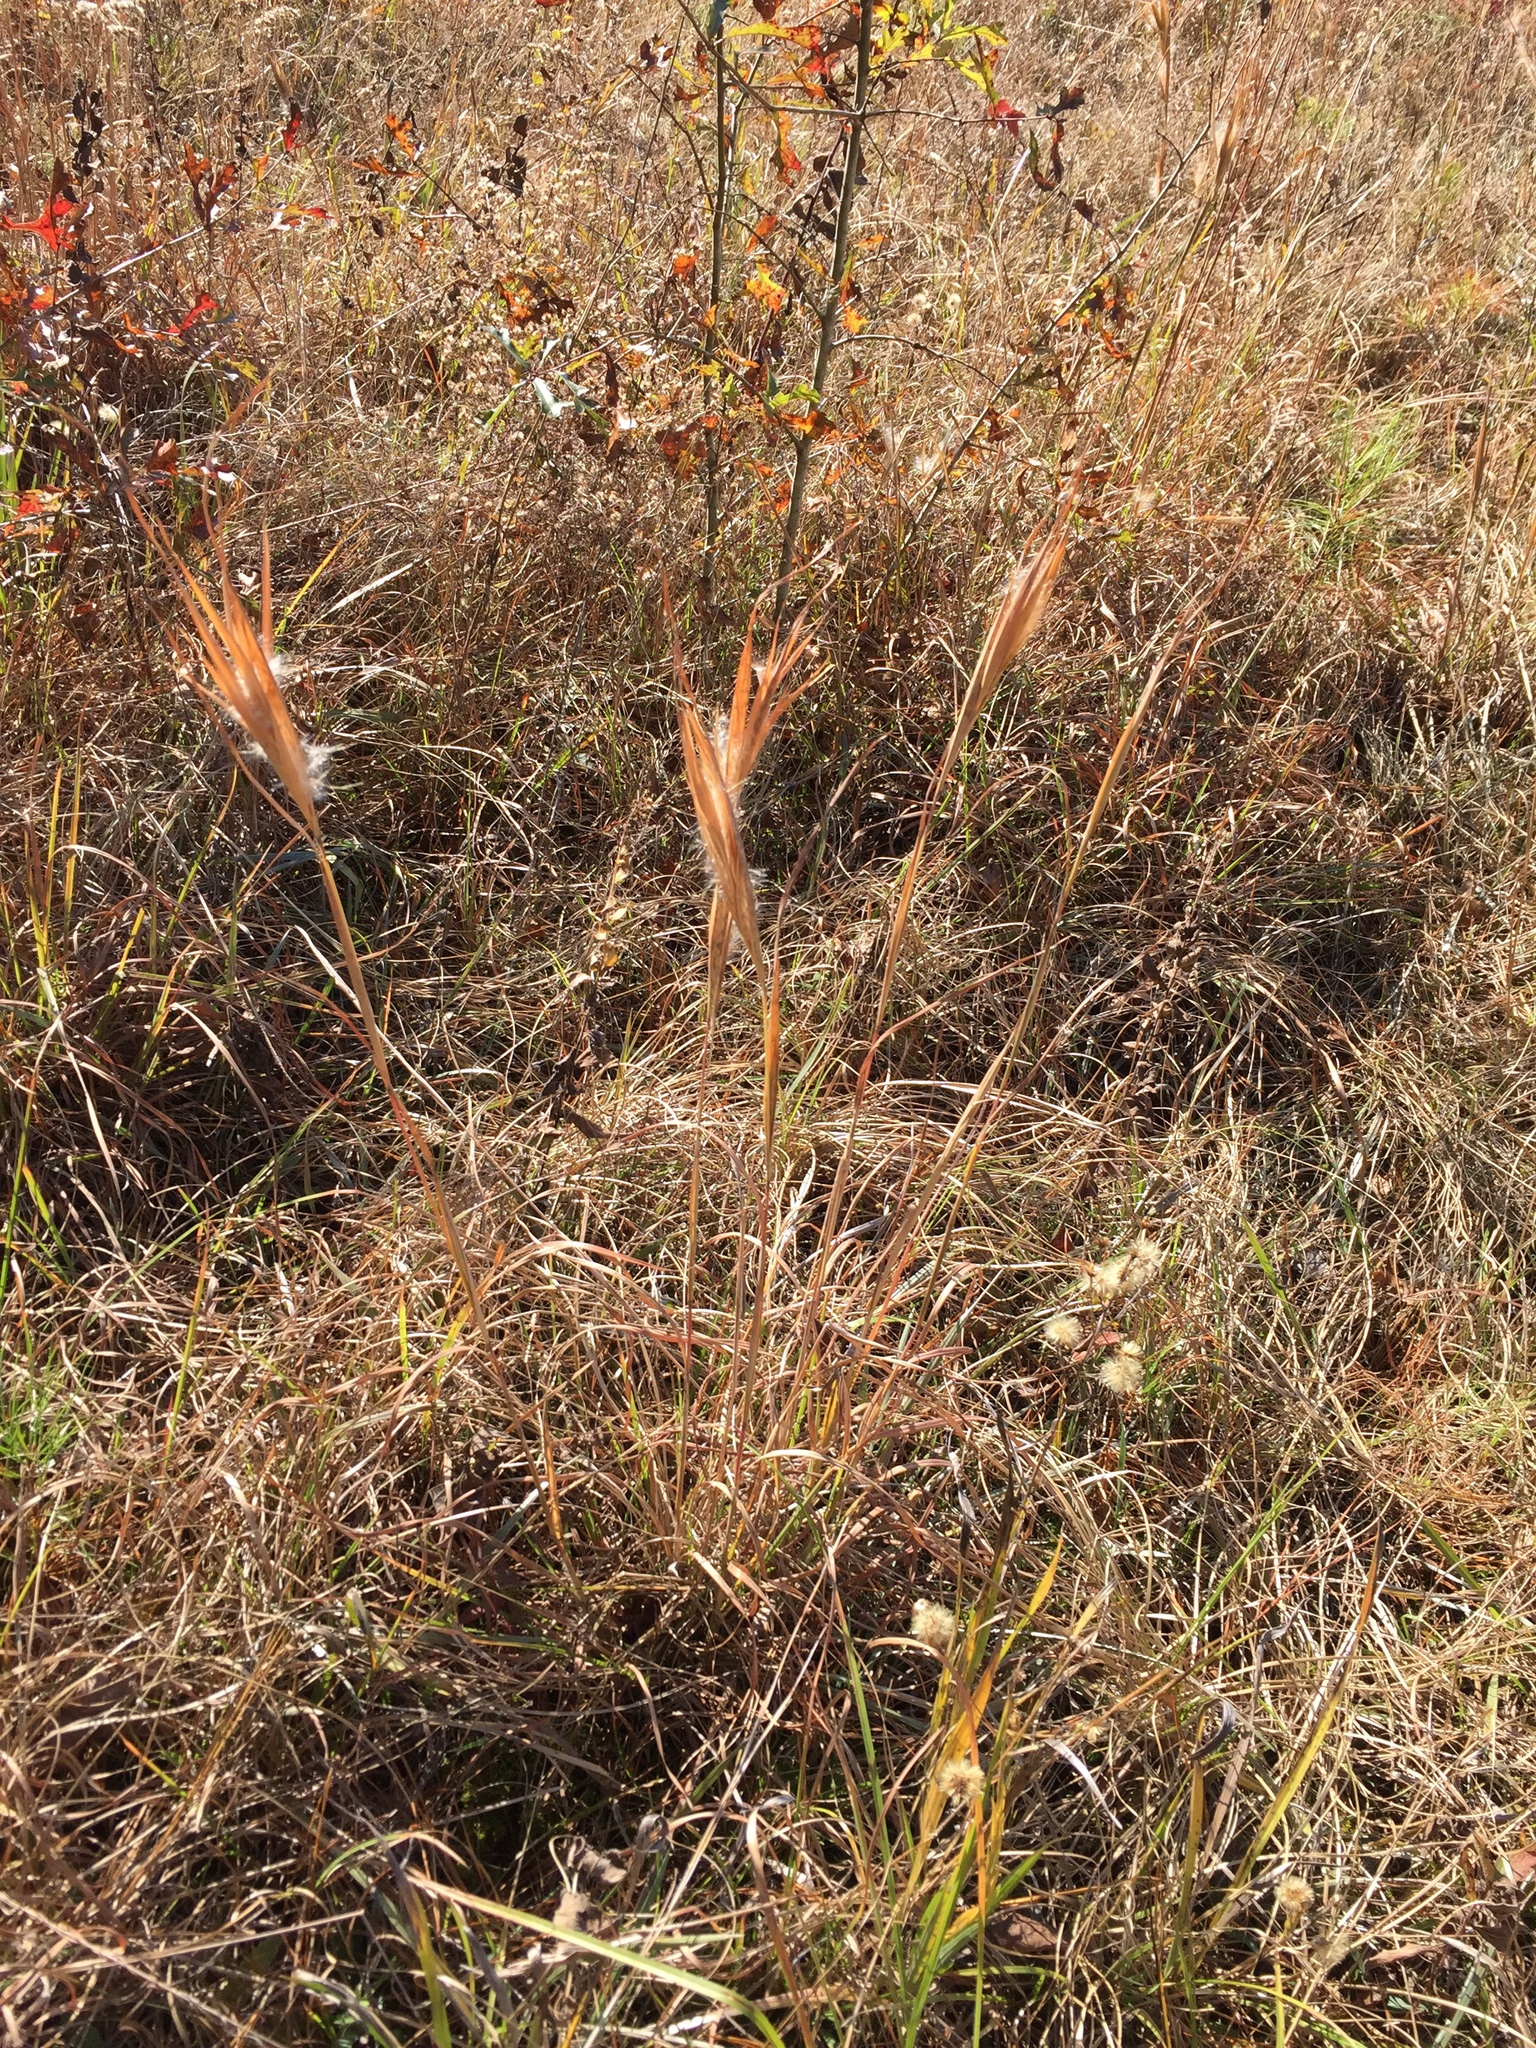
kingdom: Plantae
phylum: Tracheophyta
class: Liliopsida
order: Poales
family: Poaceae
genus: Andropogon
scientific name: Andropogon gyrans
